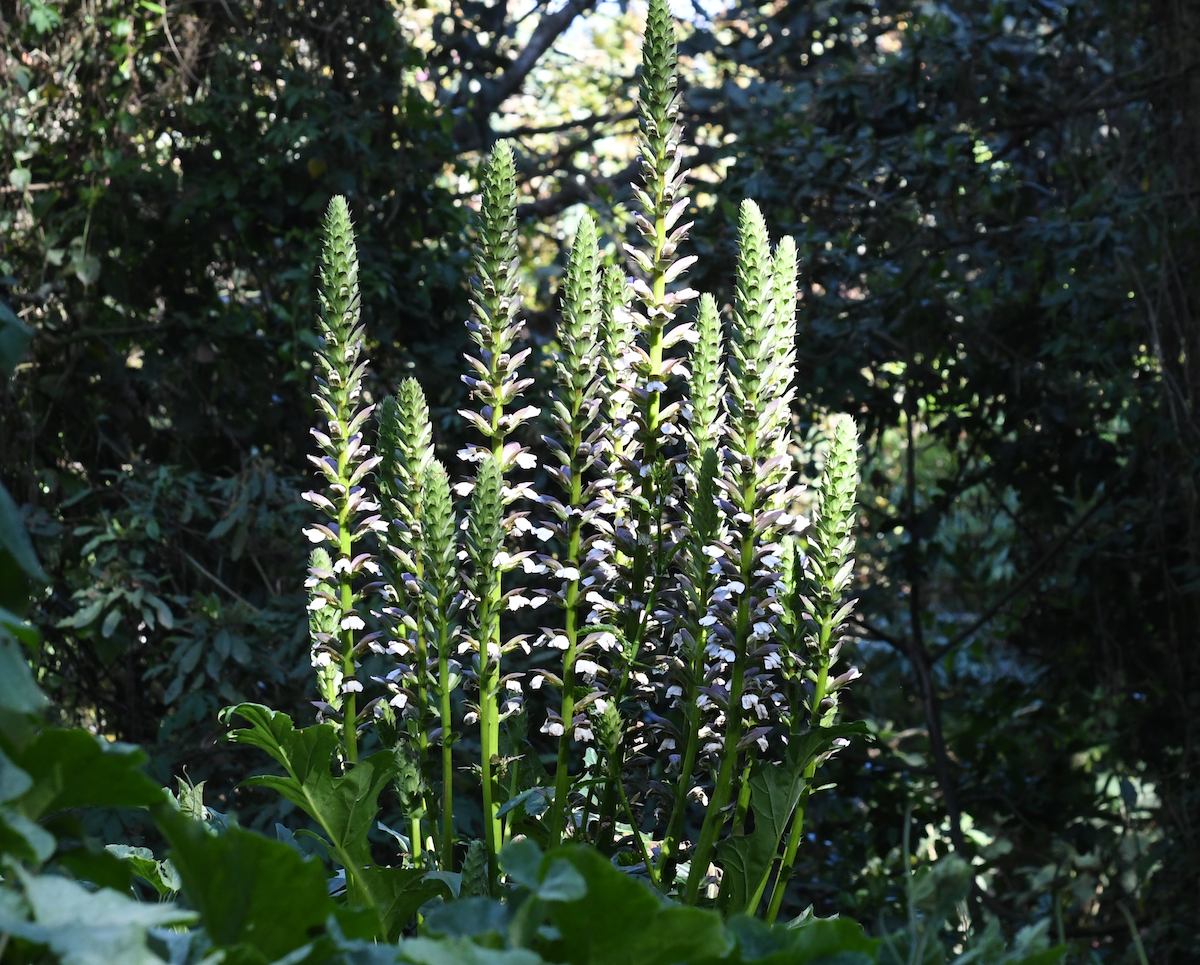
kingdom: Plantae
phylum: Tracheophyta
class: Magnoliopsida
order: Lamiales
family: Acanthaceae
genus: Acanthus
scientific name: Acanthus mollis
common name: Bear's-breech
